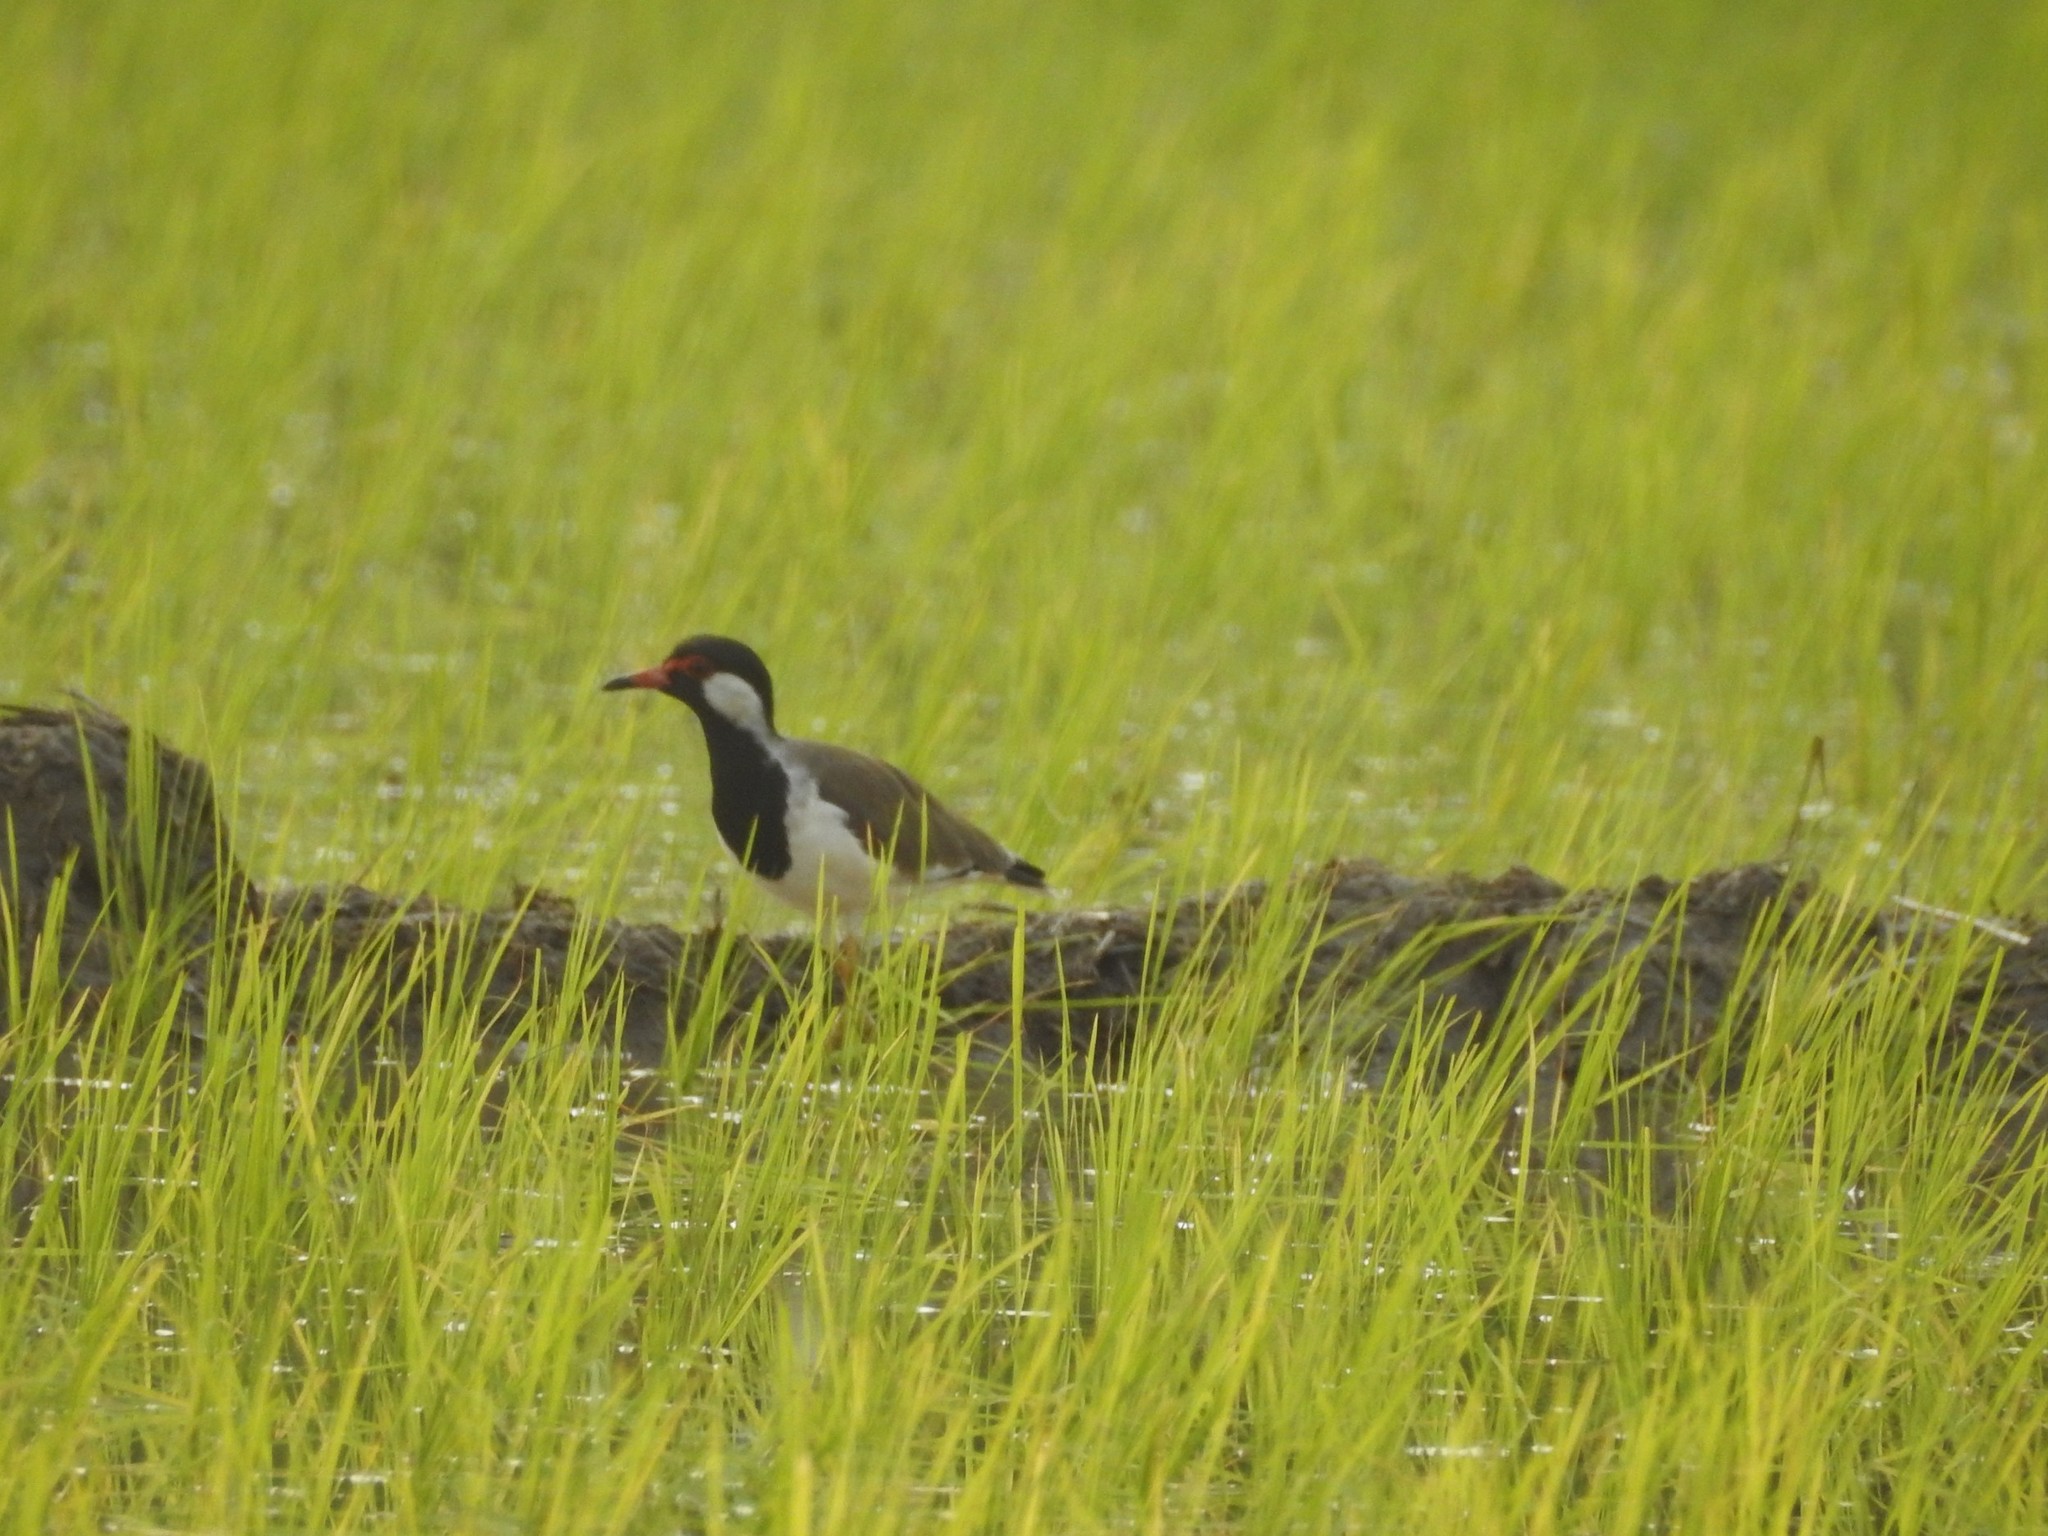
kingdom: Animalia
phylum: Chordata
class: Aves
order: Charadriiformes
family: Charadriidae
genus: Vanellus
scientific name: Vanellus indicus
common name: Red-wattled lapwing
